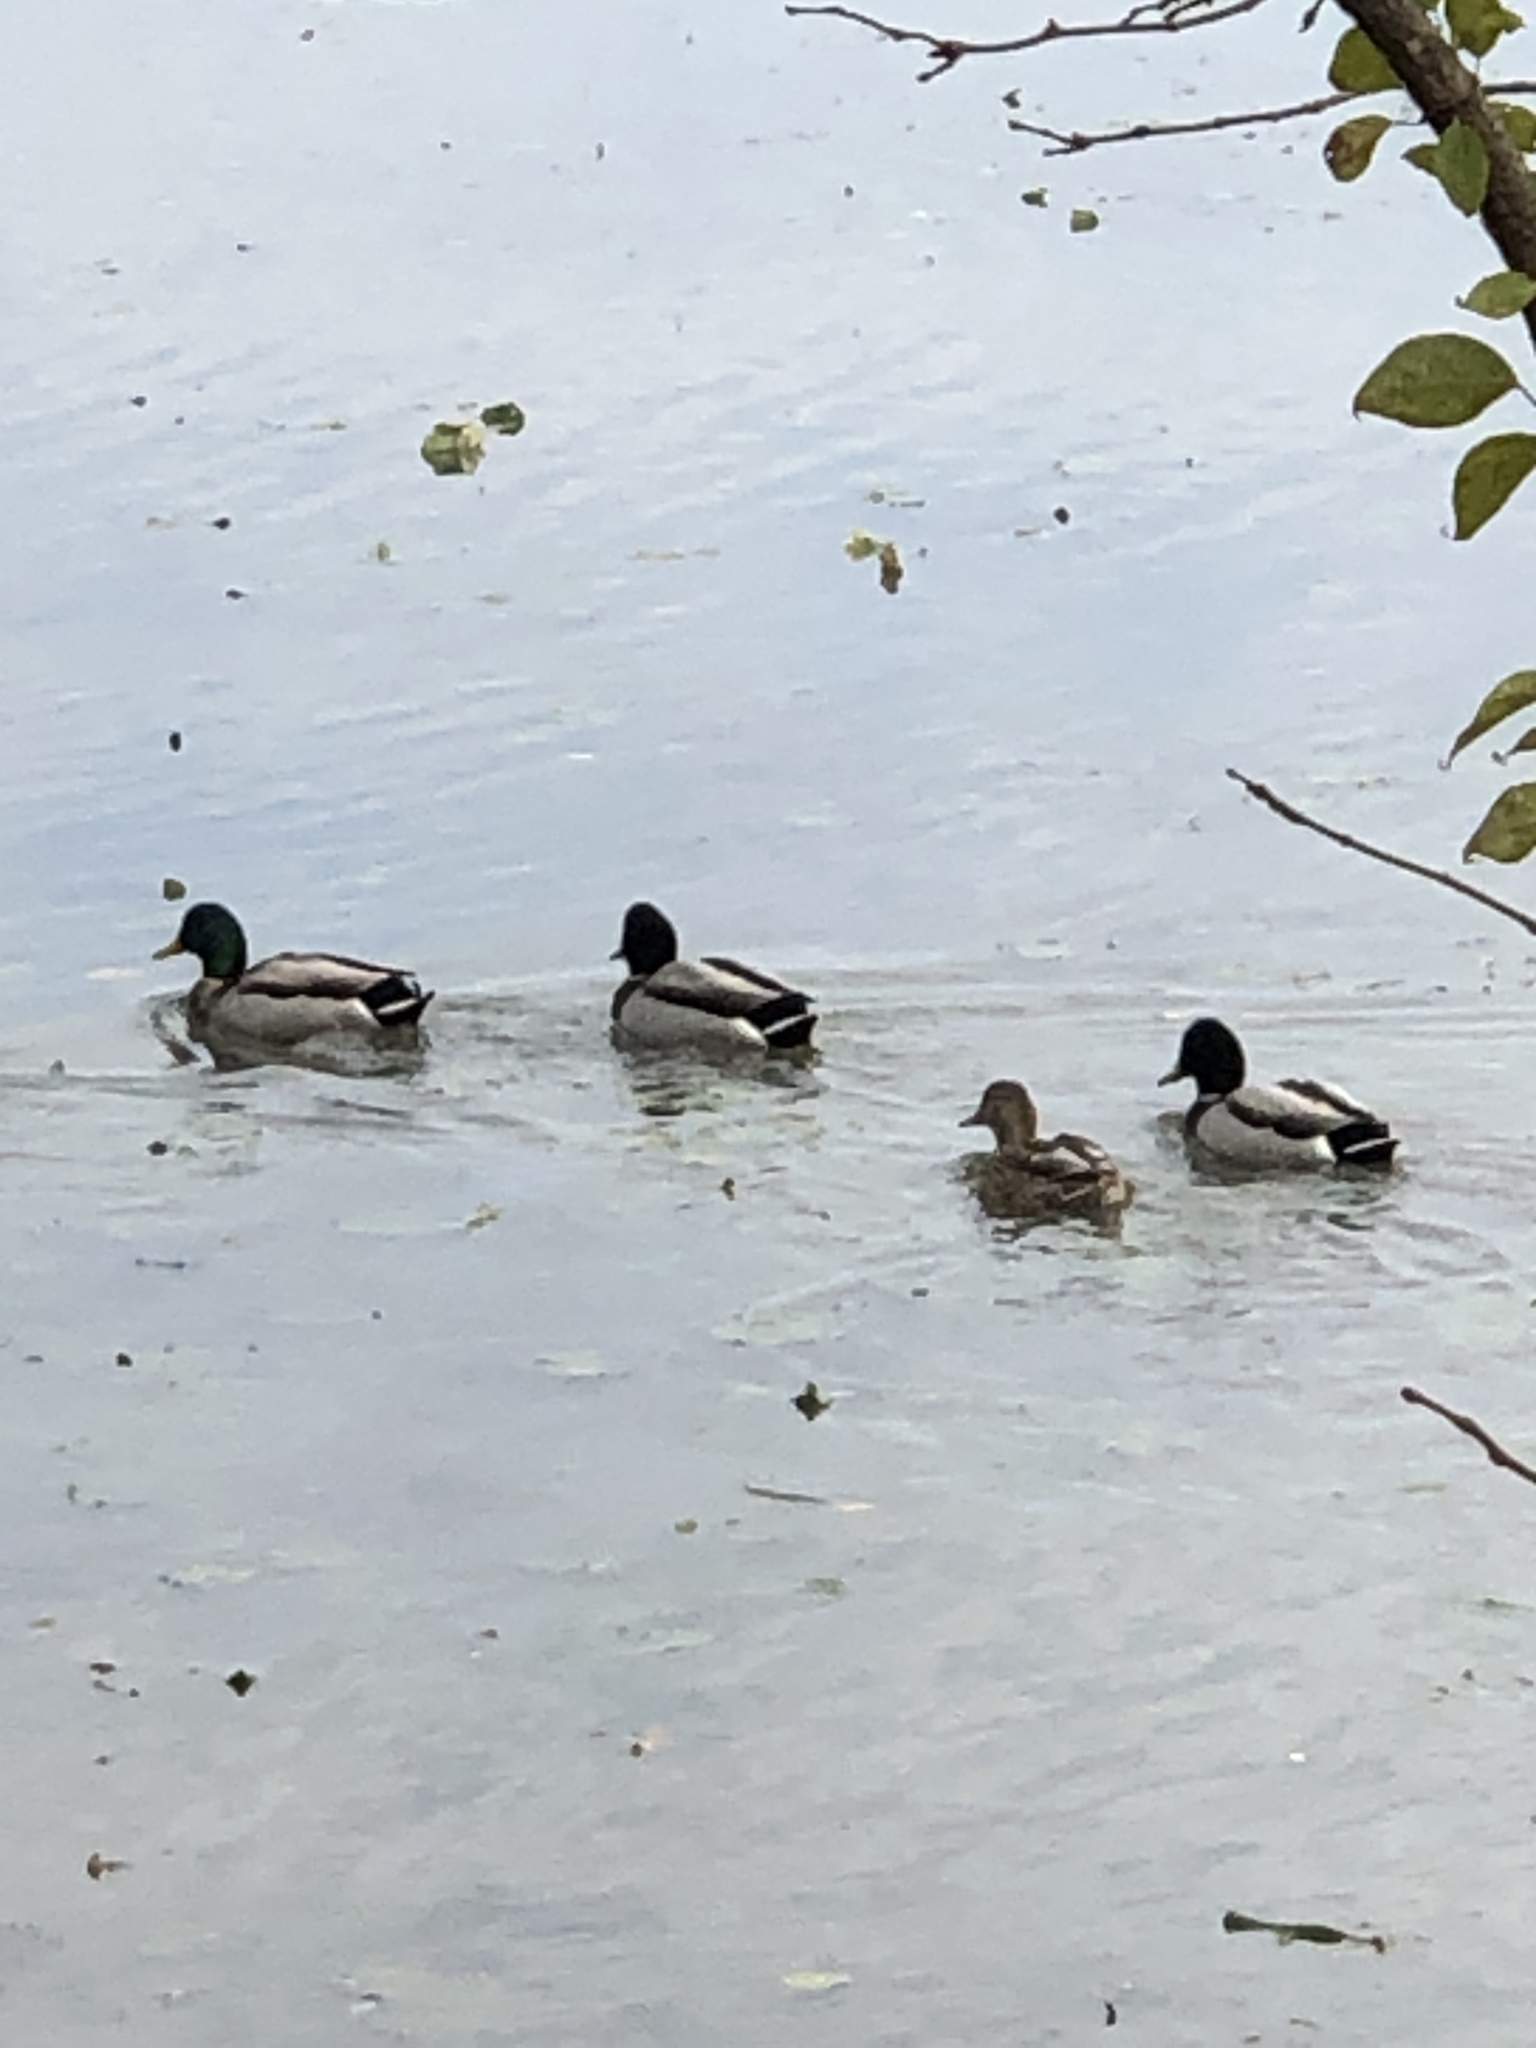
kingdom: Animalia
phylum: Chordata
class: Aves
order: Anseriformes
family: Anatidae
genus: Anas
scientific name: Anas platyrhynchos
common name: Mallard
